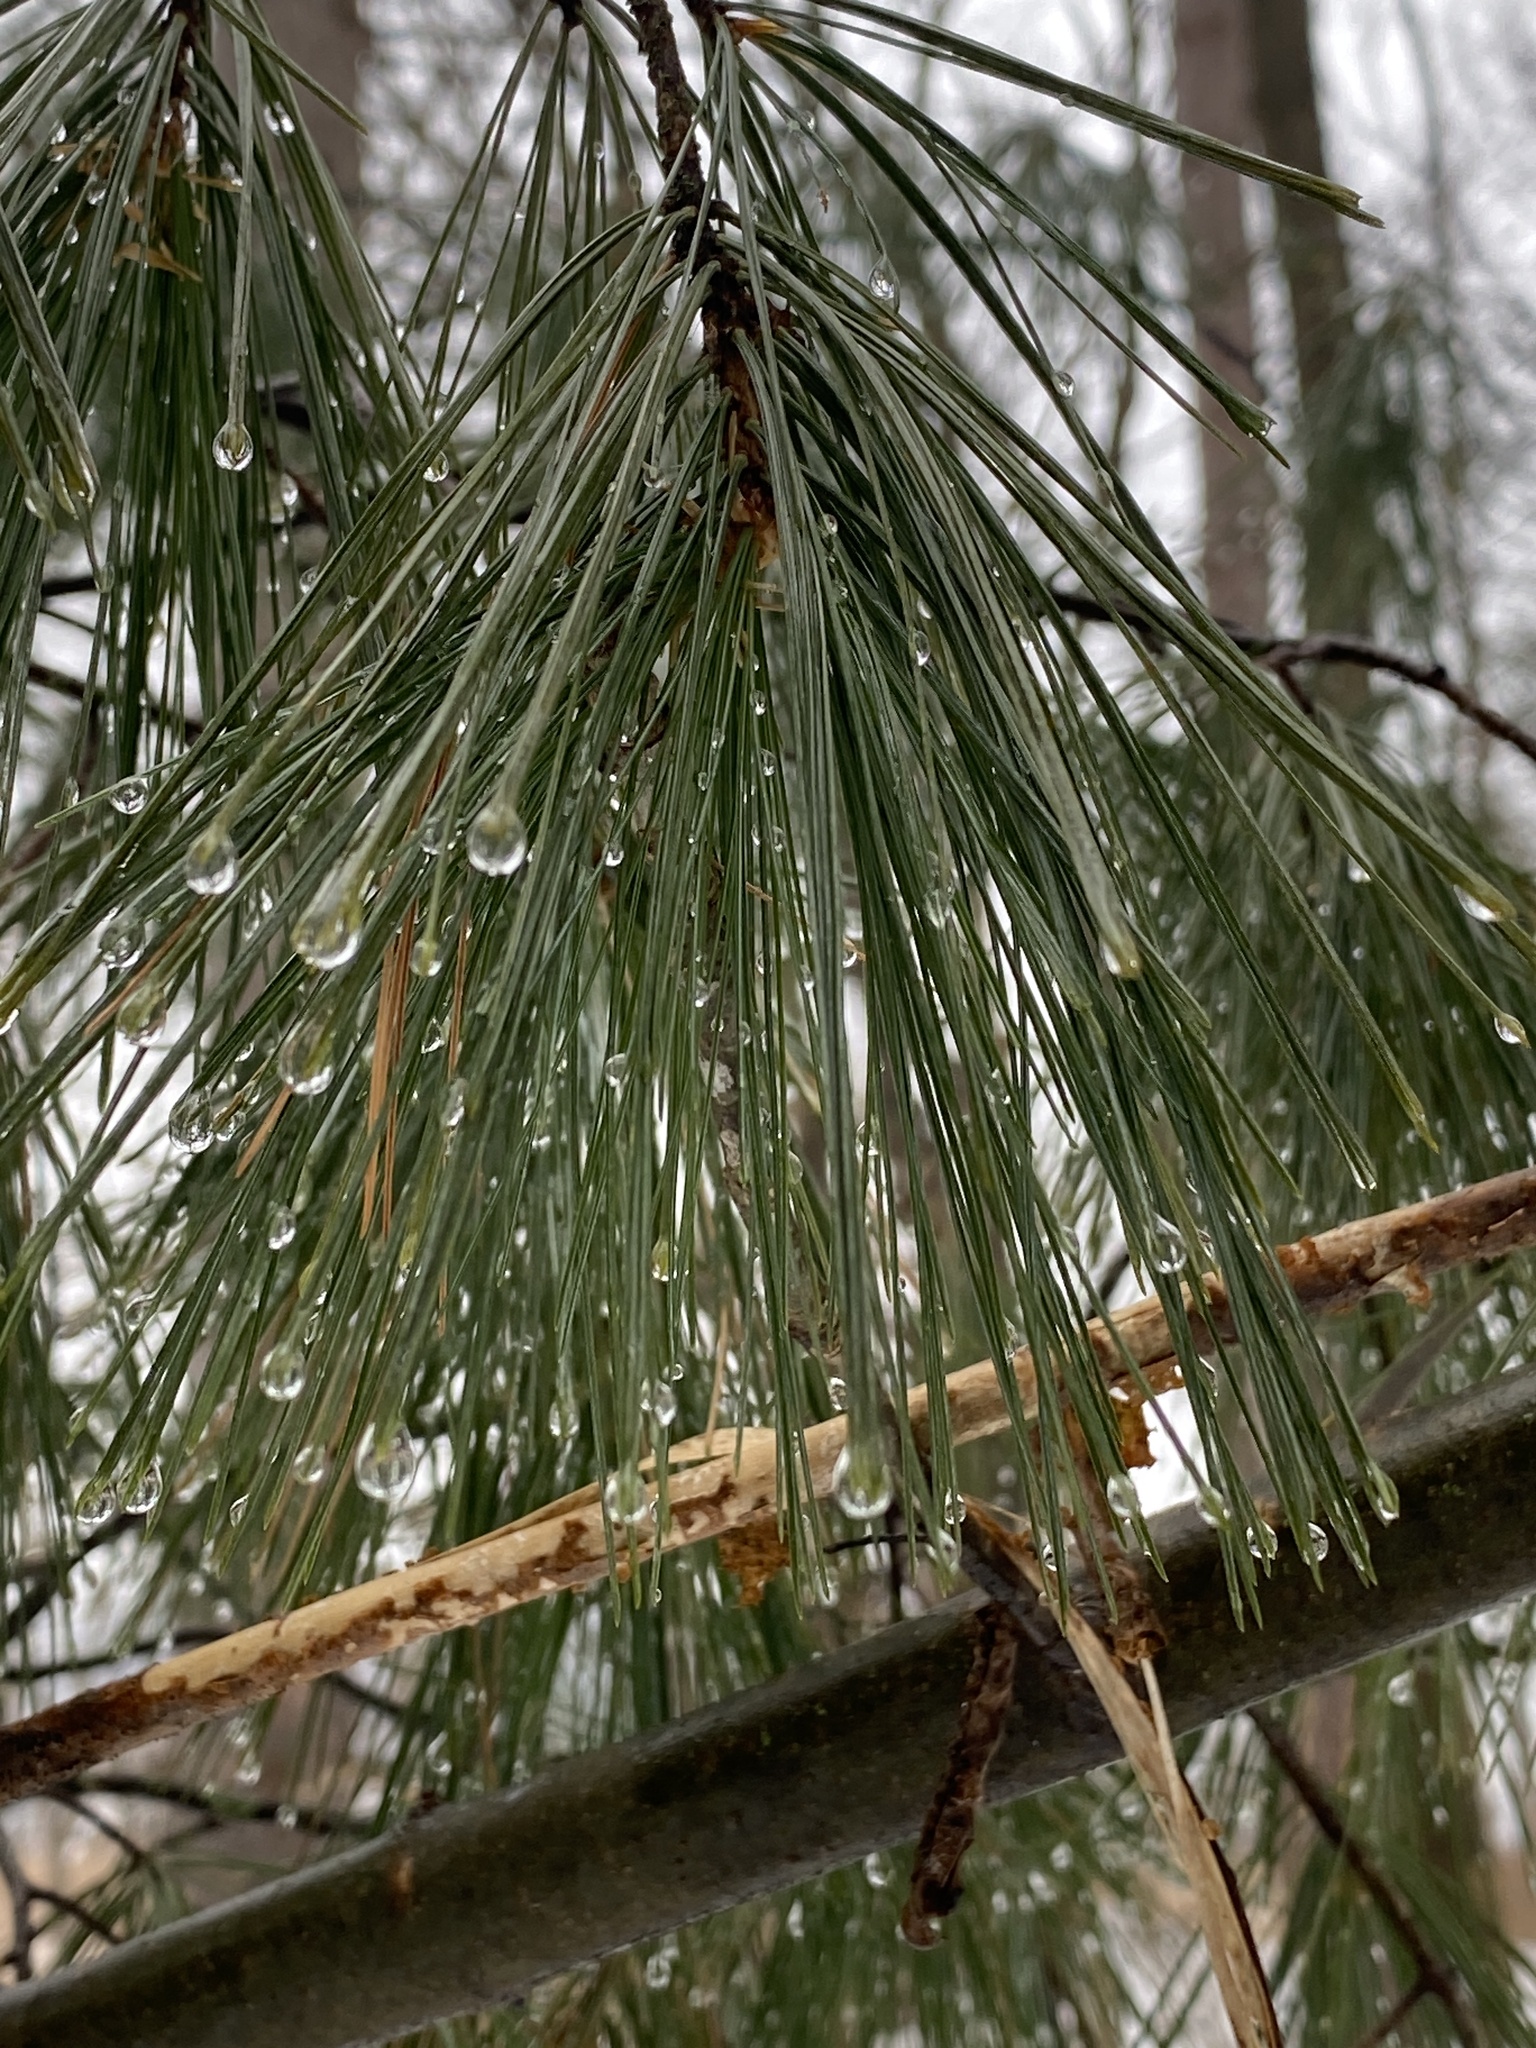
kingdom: Plantae
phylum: Tracheophyta
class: Pinopsida
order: Pinales
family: Pinaceae
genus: Pinus
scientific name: Pinus strobus
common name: Weymouth pine
